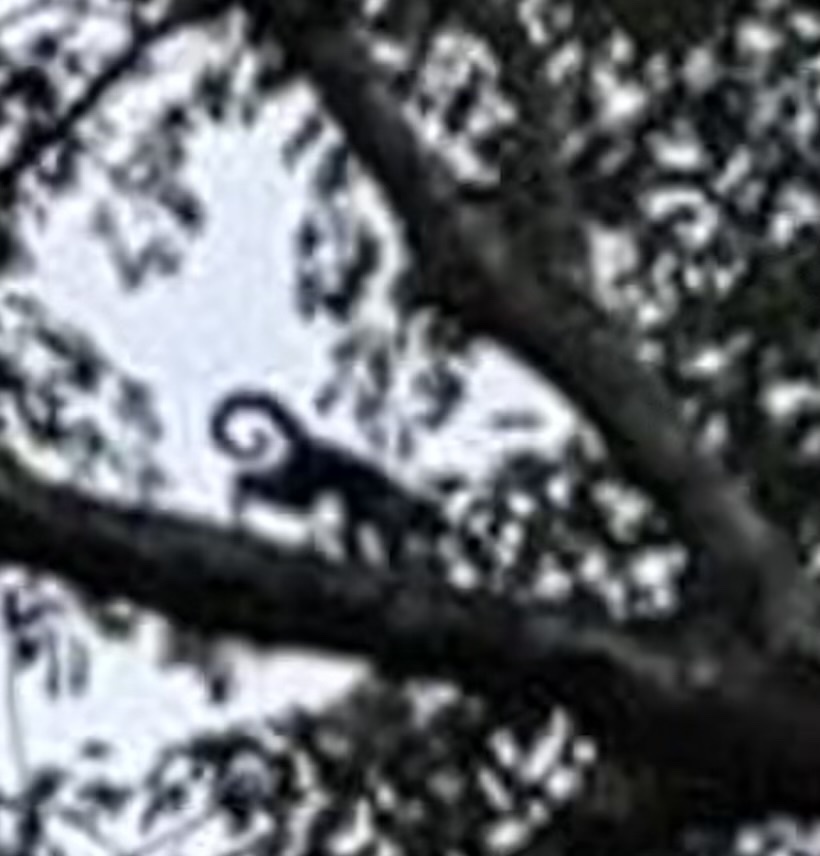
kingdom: Animalia
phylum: Chordata
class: Mammalia
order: Primates
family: Cebidae
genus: Cebus
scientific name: Cebus imitator
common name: Panamanian white-faced capuchin
